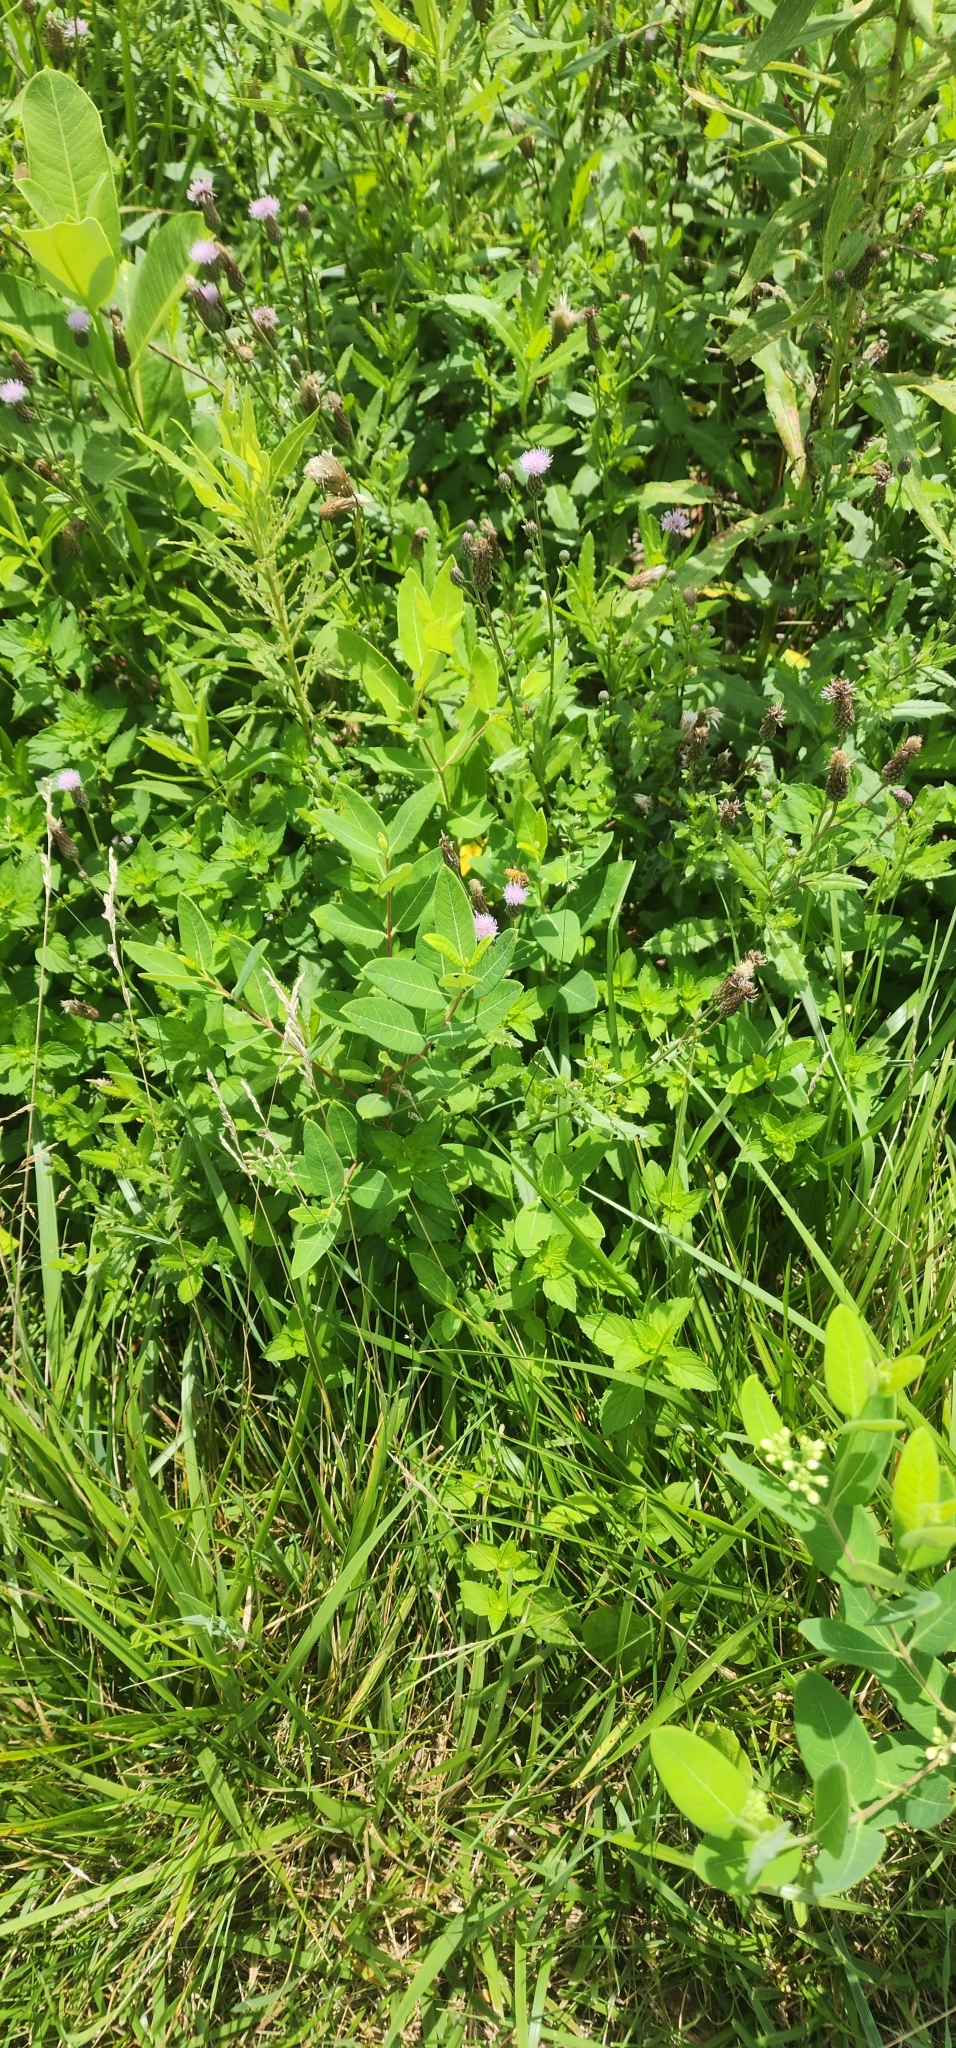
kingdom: Animalia
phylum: Arthropoda
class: Insecta
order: Hymenoptera
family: Apidae
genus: Apis
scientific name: Apis mellifera
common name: Honey bee
